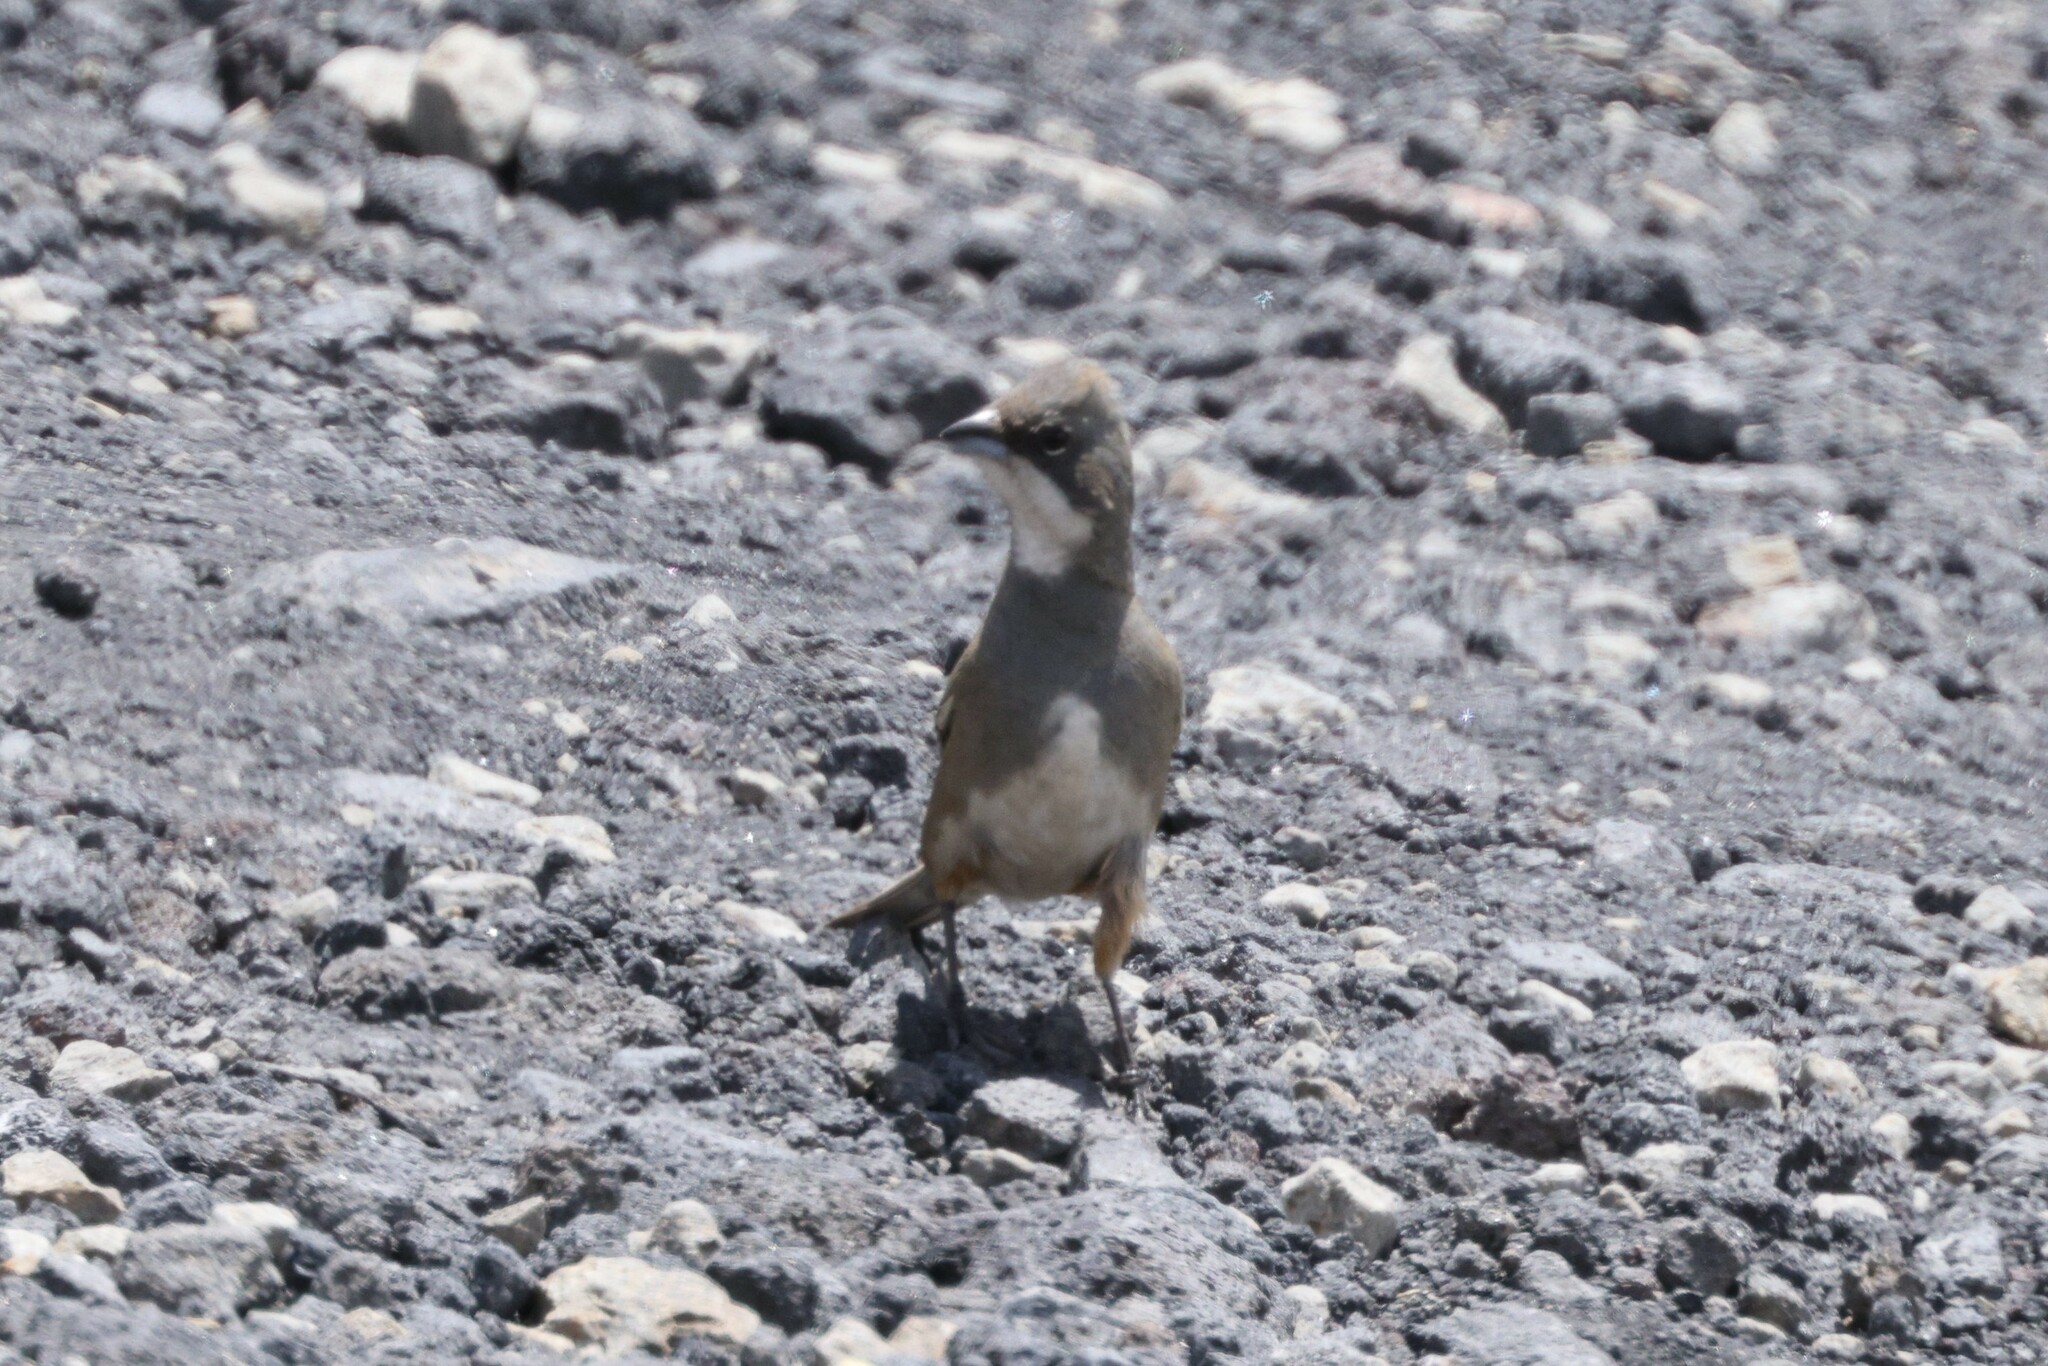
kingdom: Animalia
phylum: Chordata
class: Aves
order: Passeriformes
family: Thraupidae
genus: Diuca
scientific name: Diuca diuca
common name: Common diuca finch
